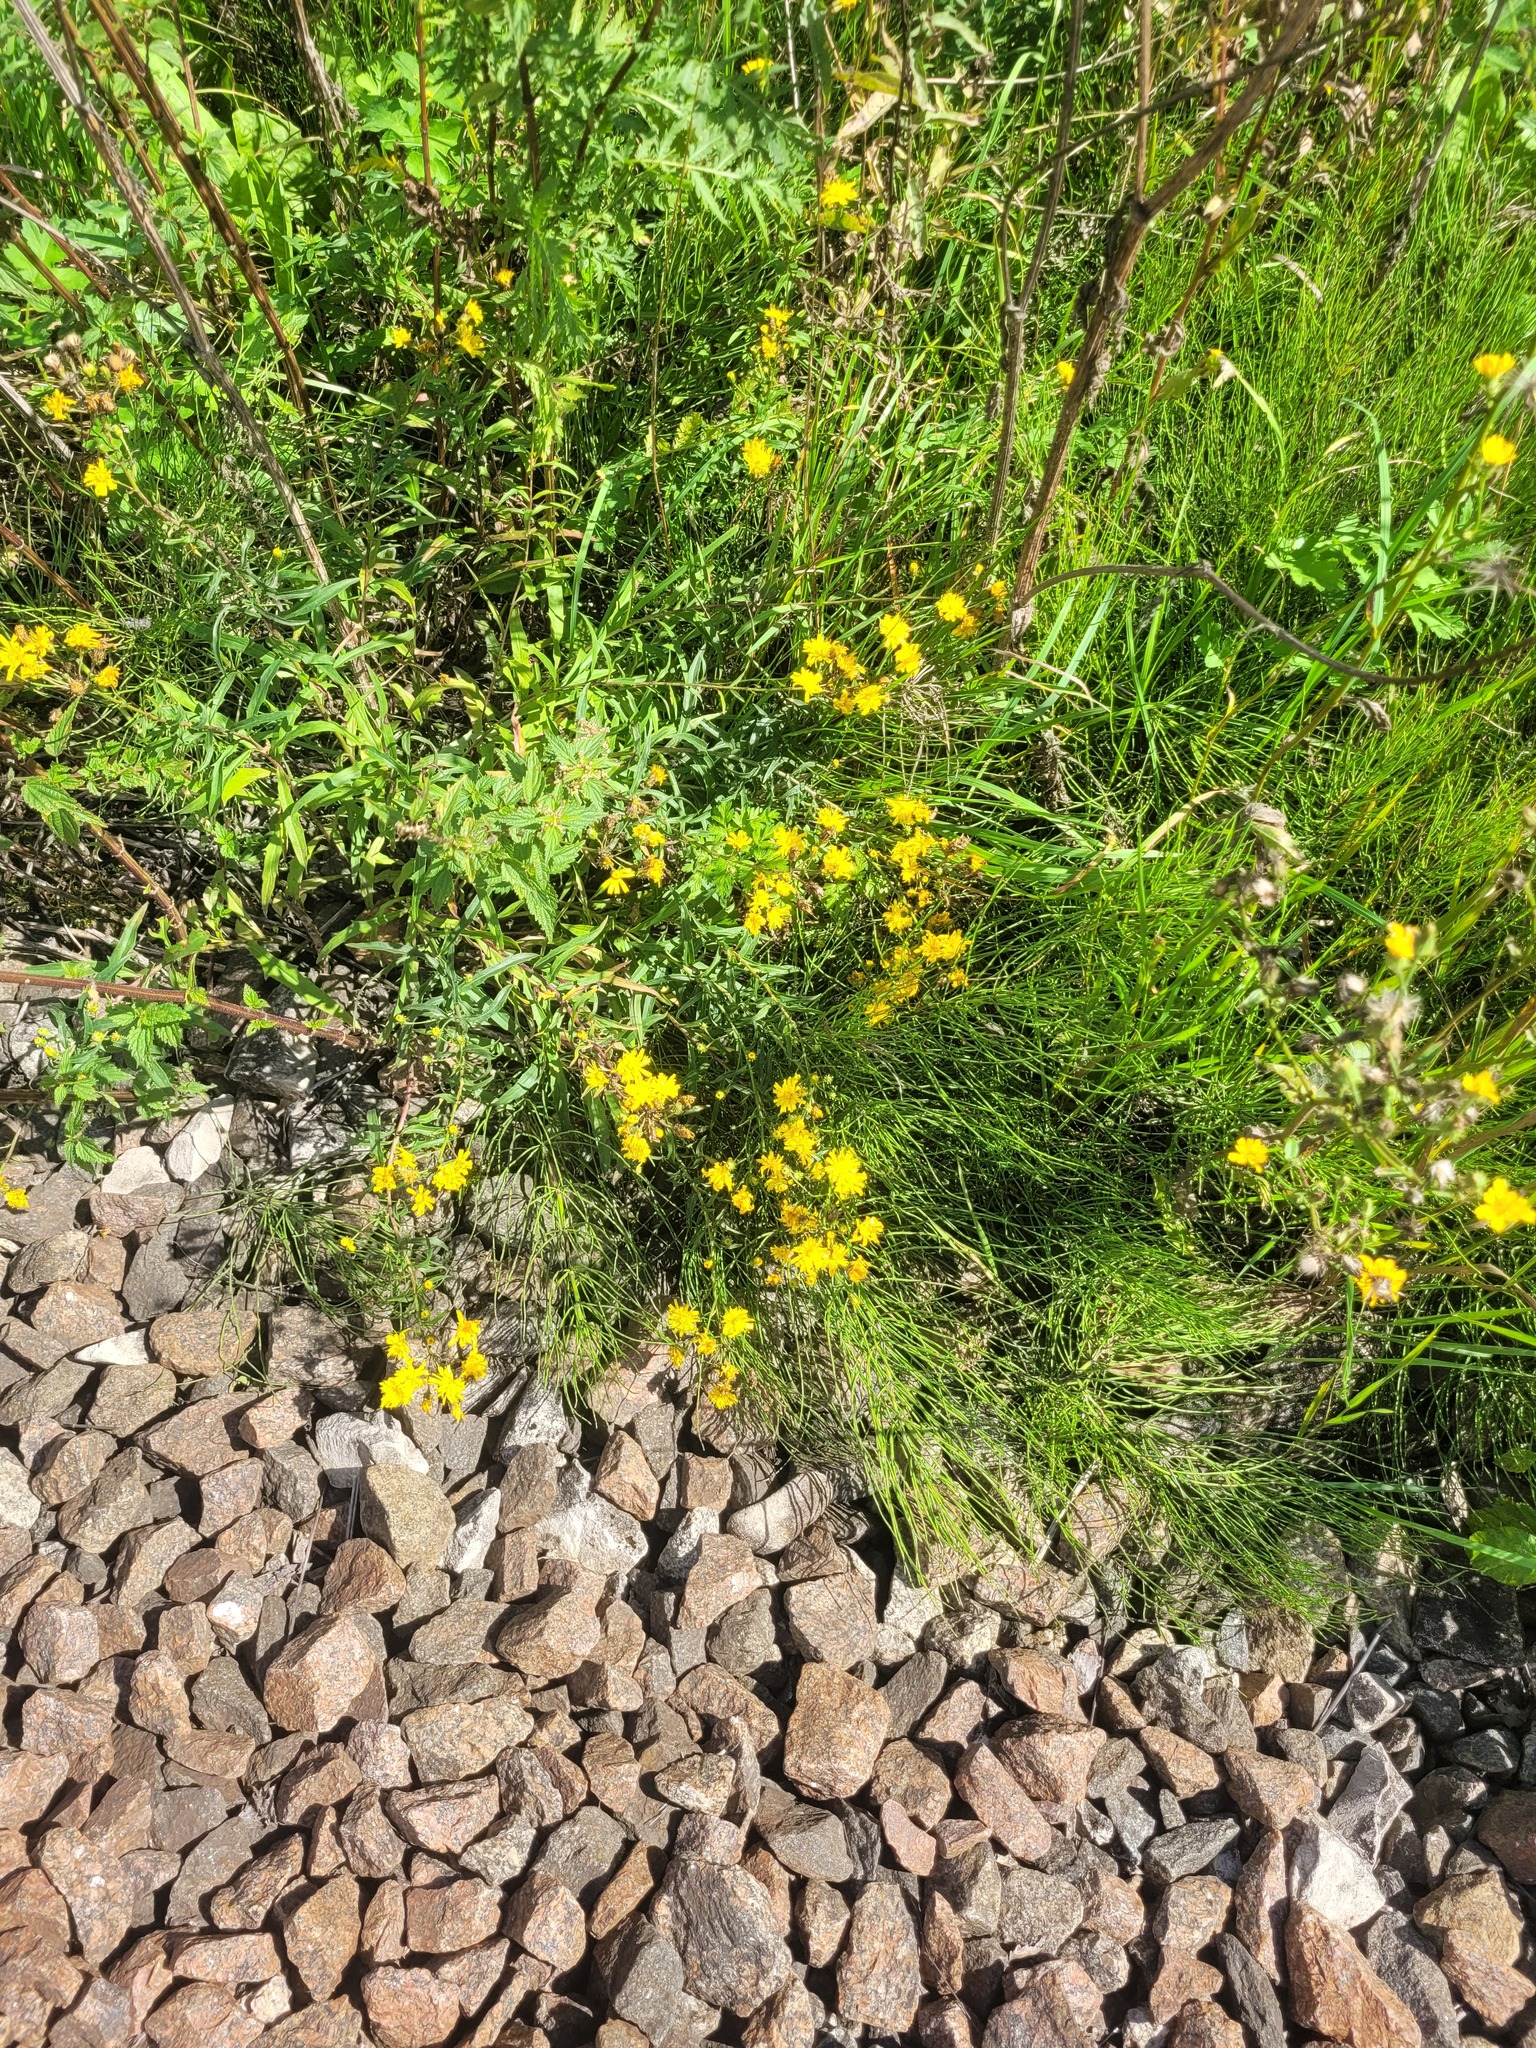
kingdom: Plantae
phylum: Tracheophyta
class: Magnoliopsida
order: Asterales
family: Asteraceae
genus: Hieracium
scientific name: Hieracium umbellatum
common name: Northern hawkweed
